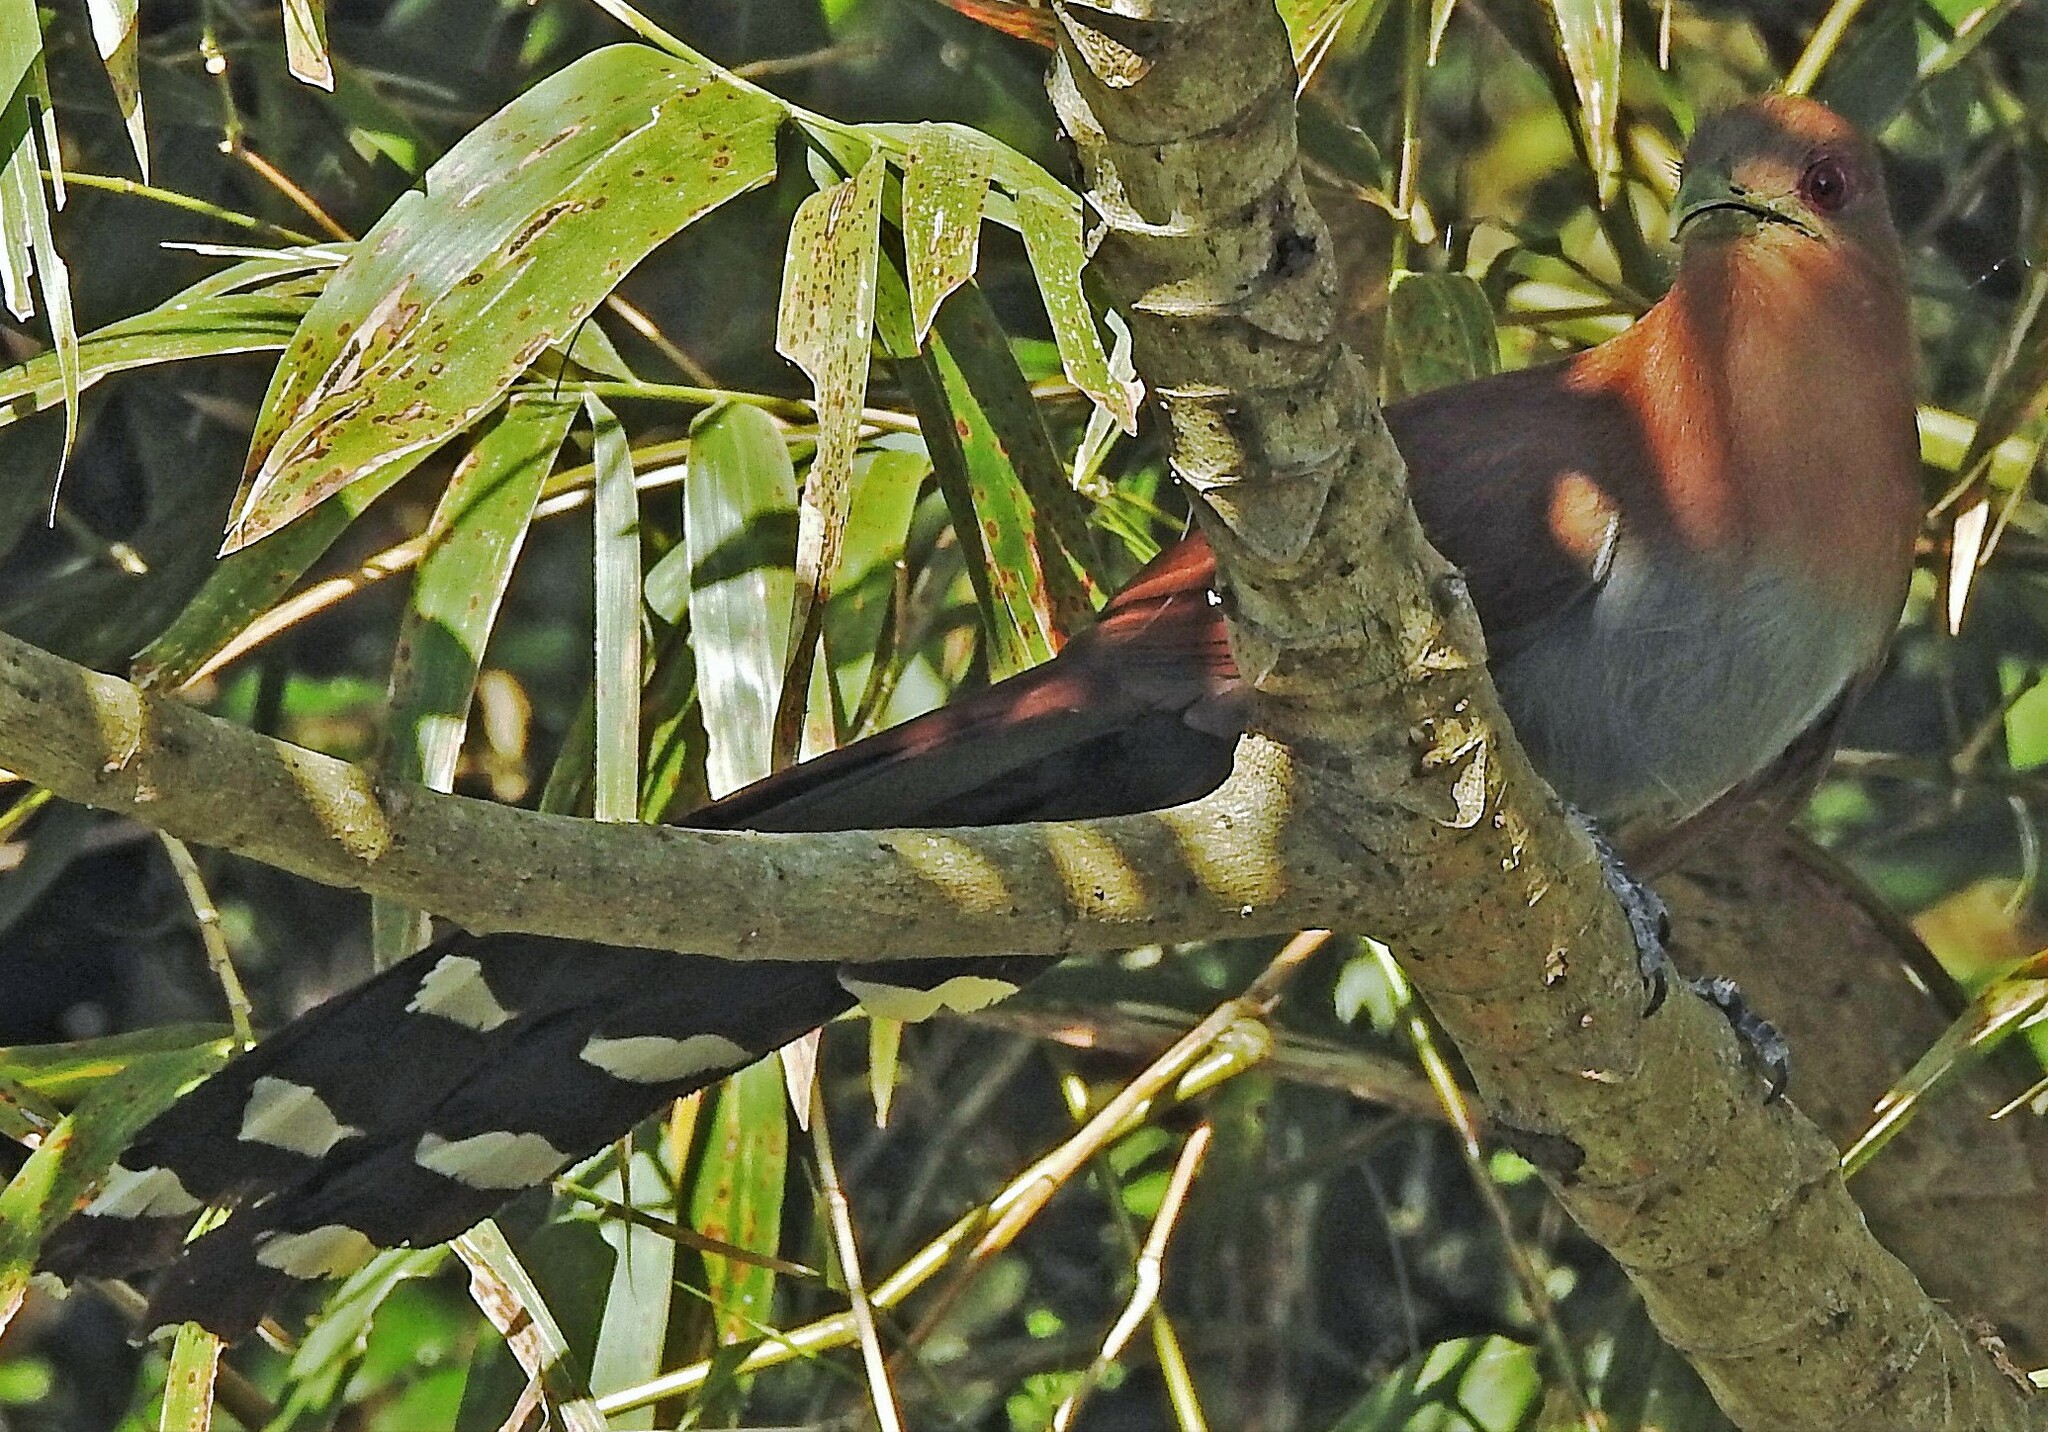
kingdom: Animalia
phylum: Chordata
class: Aves
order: Cuculiformes
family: Cuculidae
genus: Piaya
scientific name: Piaya cayana
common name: Squirrel cuckoo
